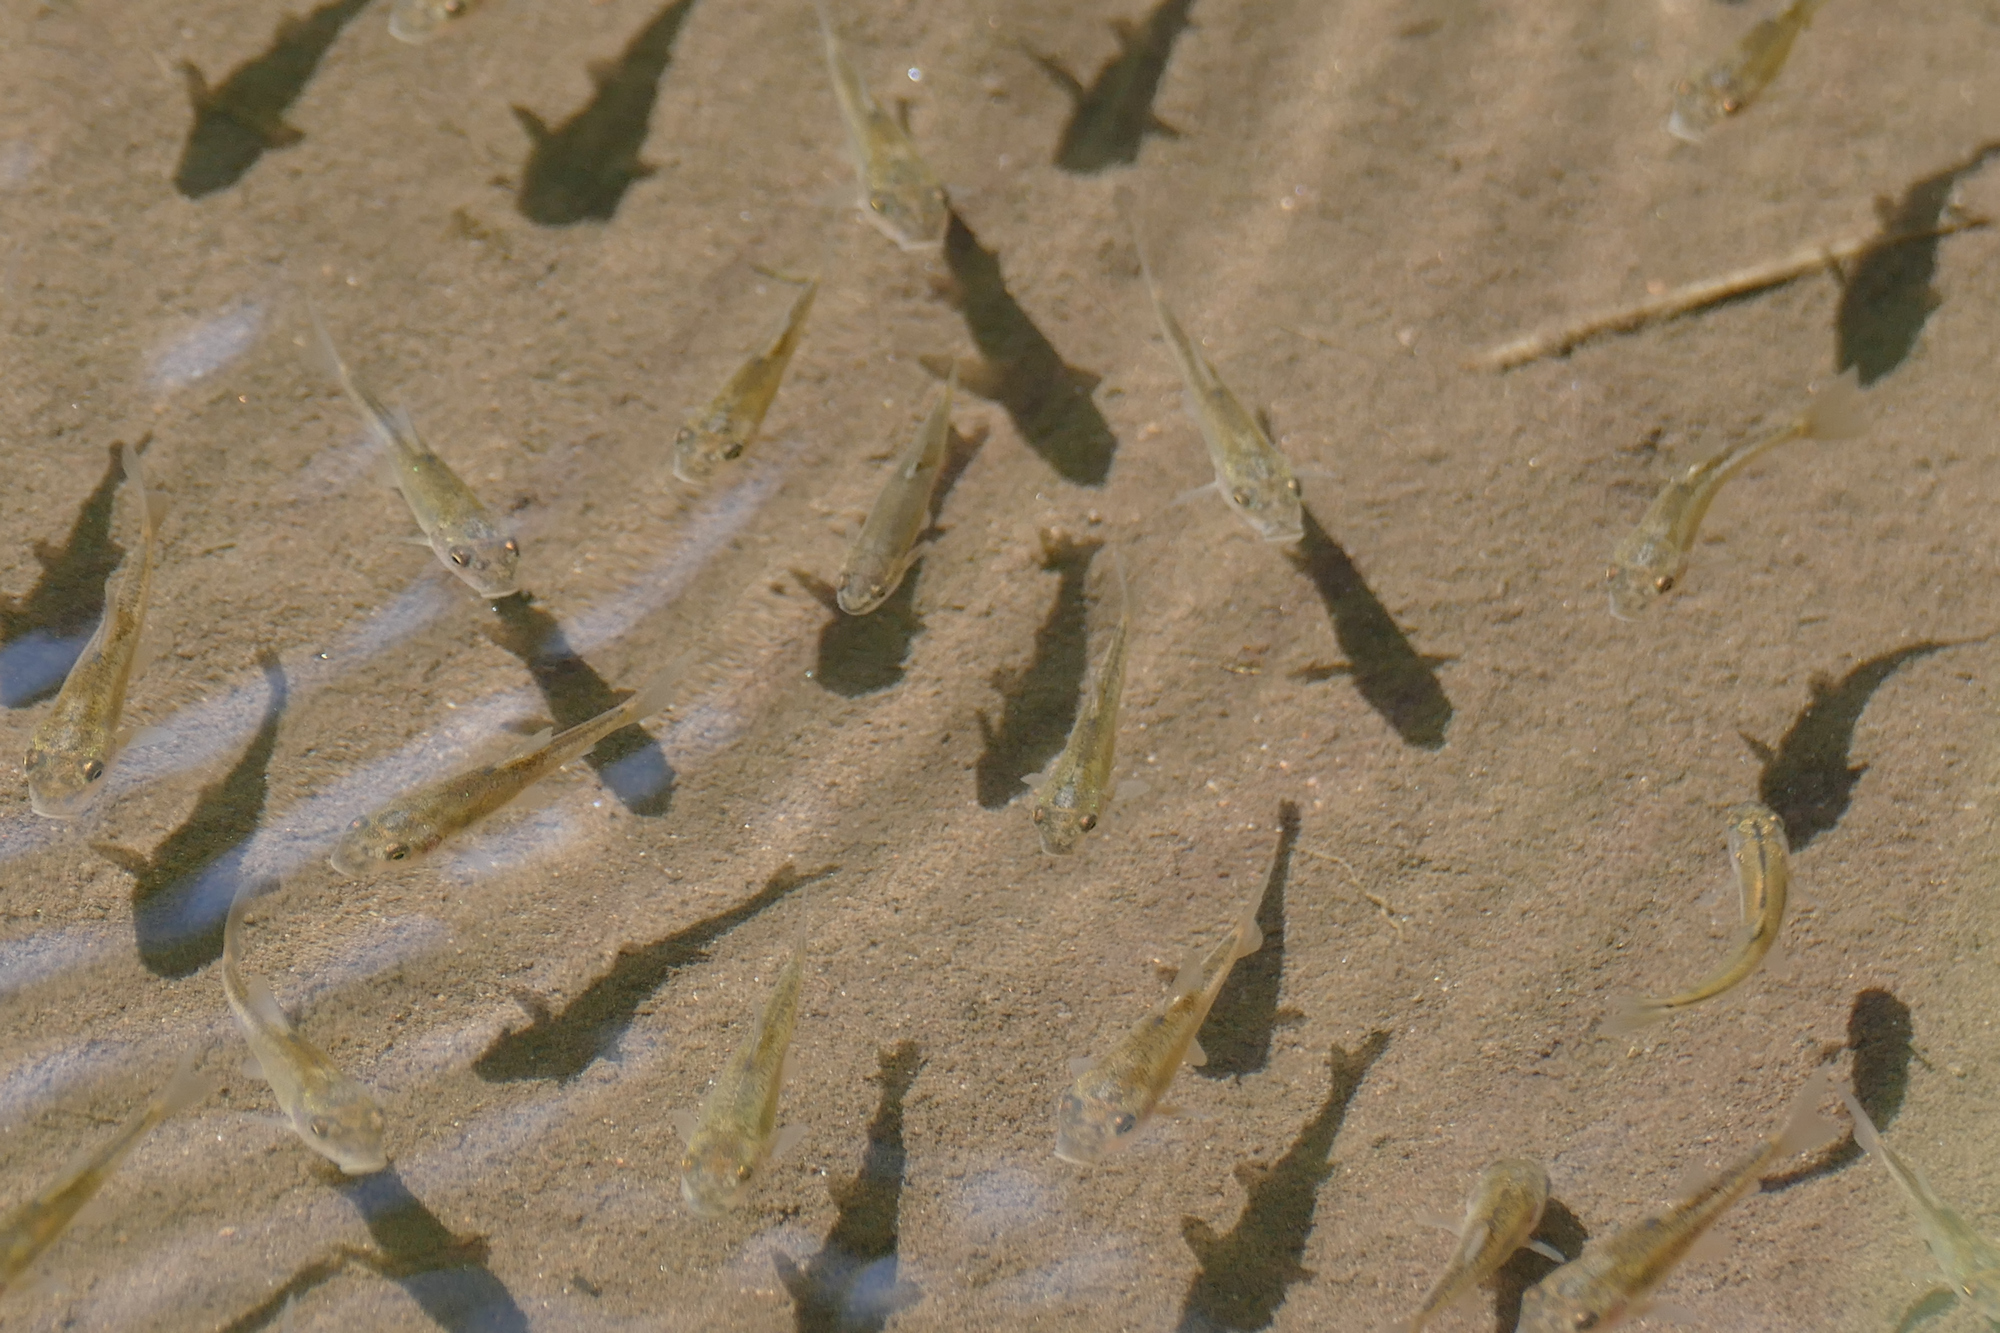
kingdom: Animalia
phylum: Chordata
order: Cypriniformes
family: Catostomidae
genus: Catostomus
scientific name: Catostomus insignis
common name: Sonora sucker
